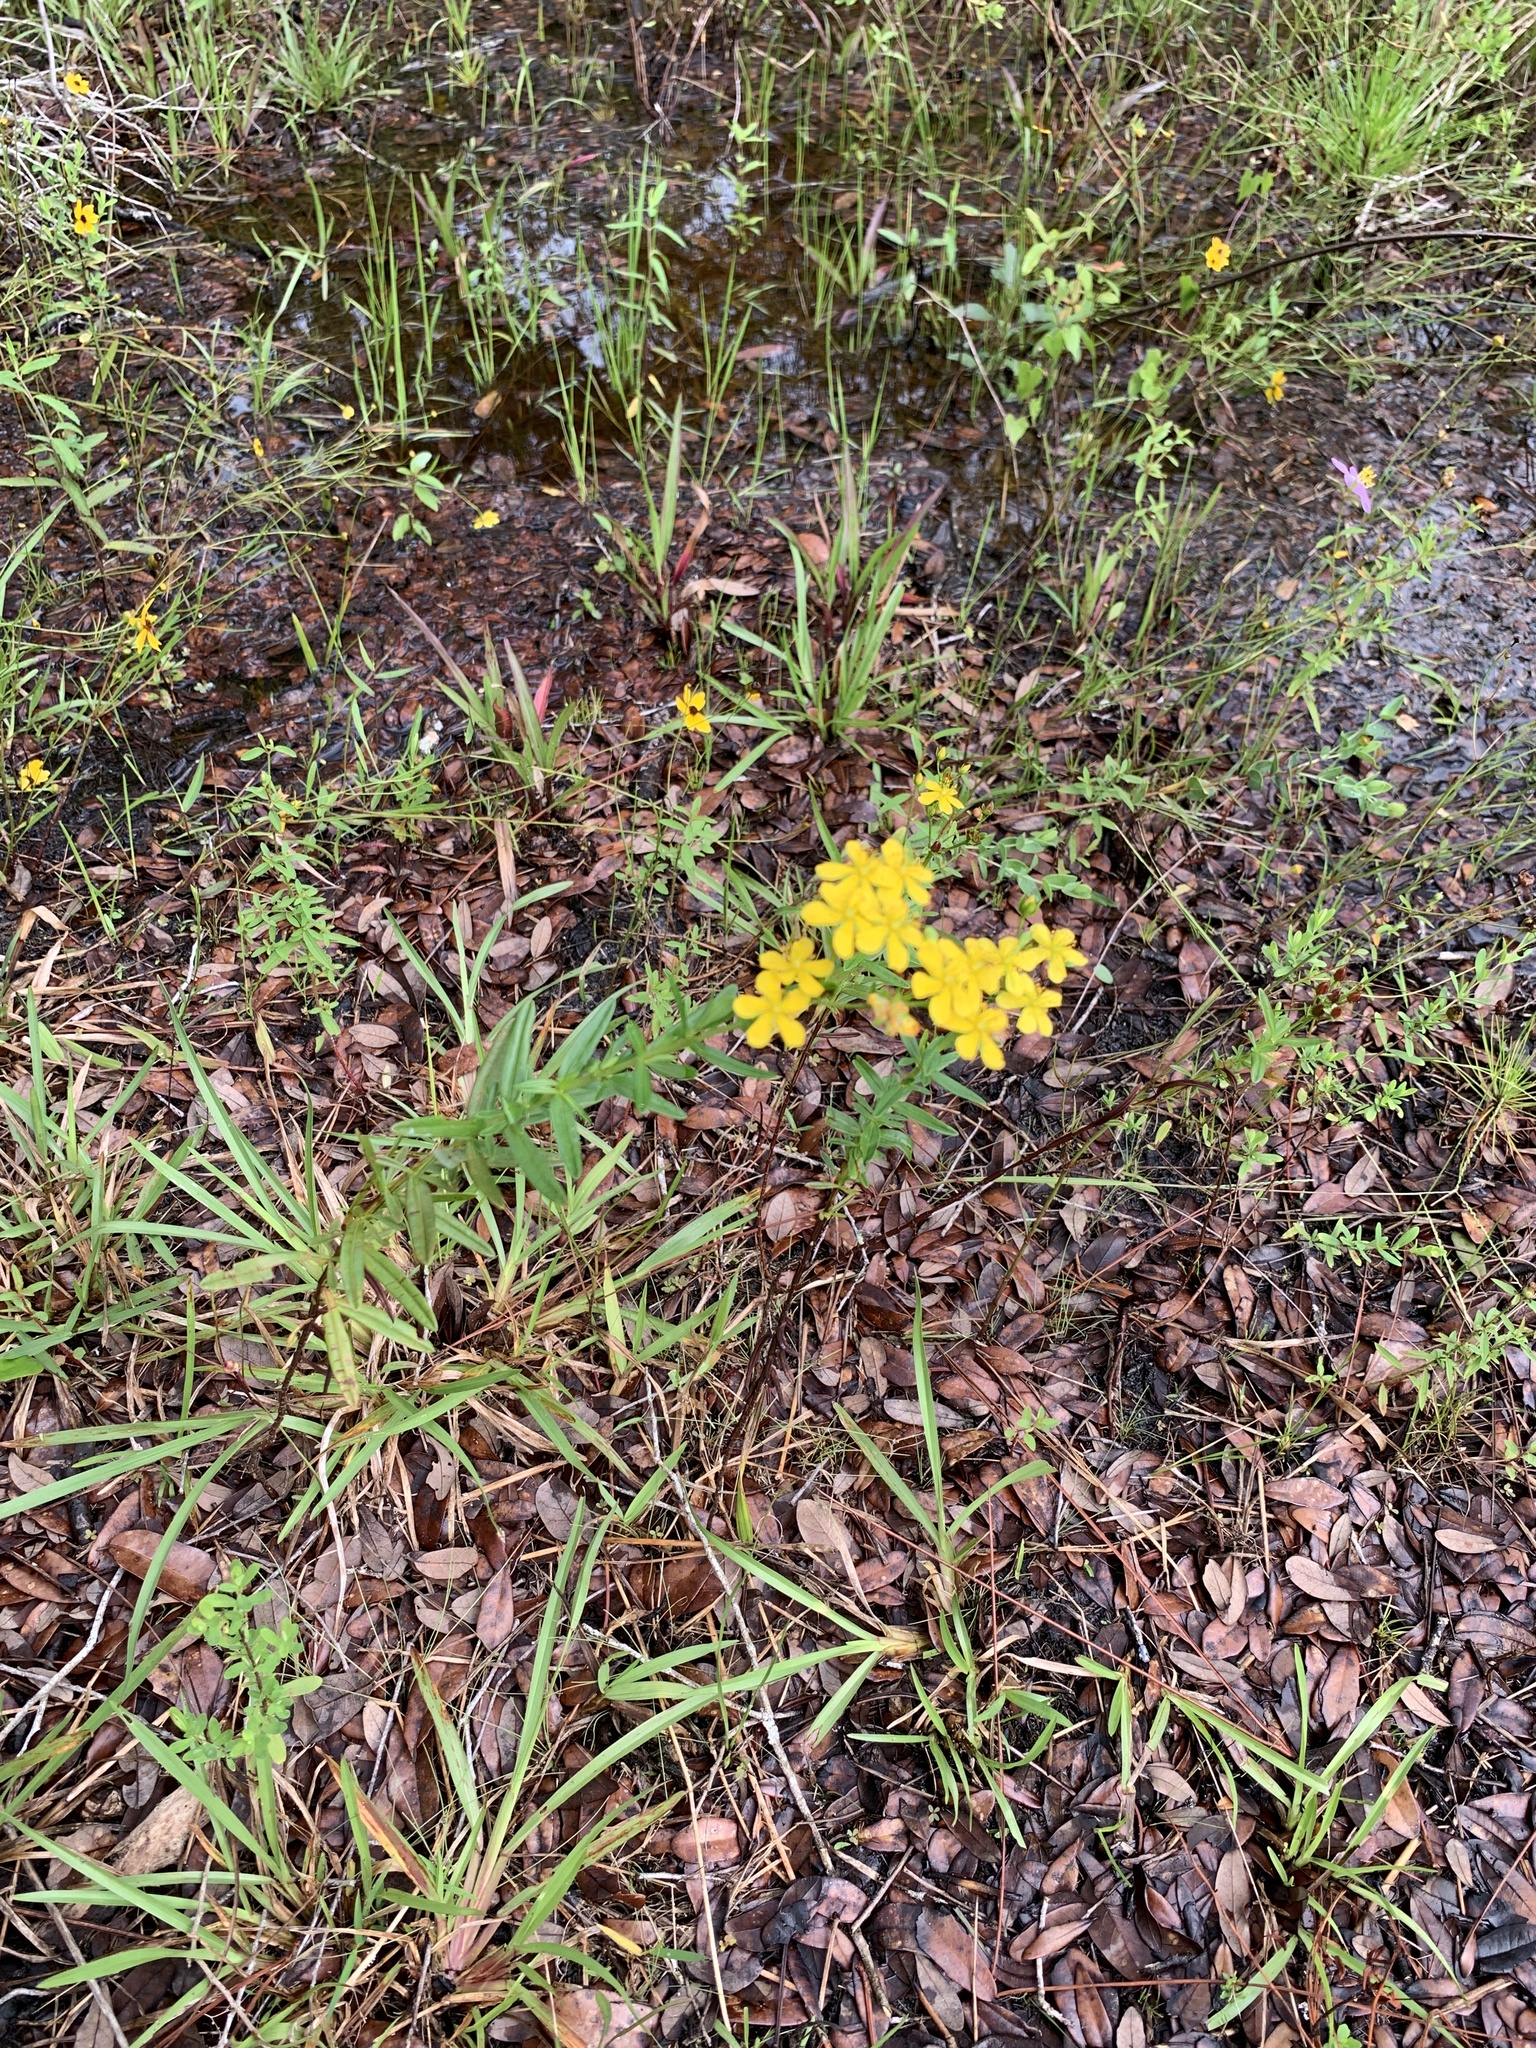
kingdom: Plantae
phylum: Tracheophyta
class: Magnoliopsida
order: Malpighiales
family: Hypericaceae
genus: Hypericum
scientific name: Hypericum cistifolium
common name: Round-pod st. john's-wort
